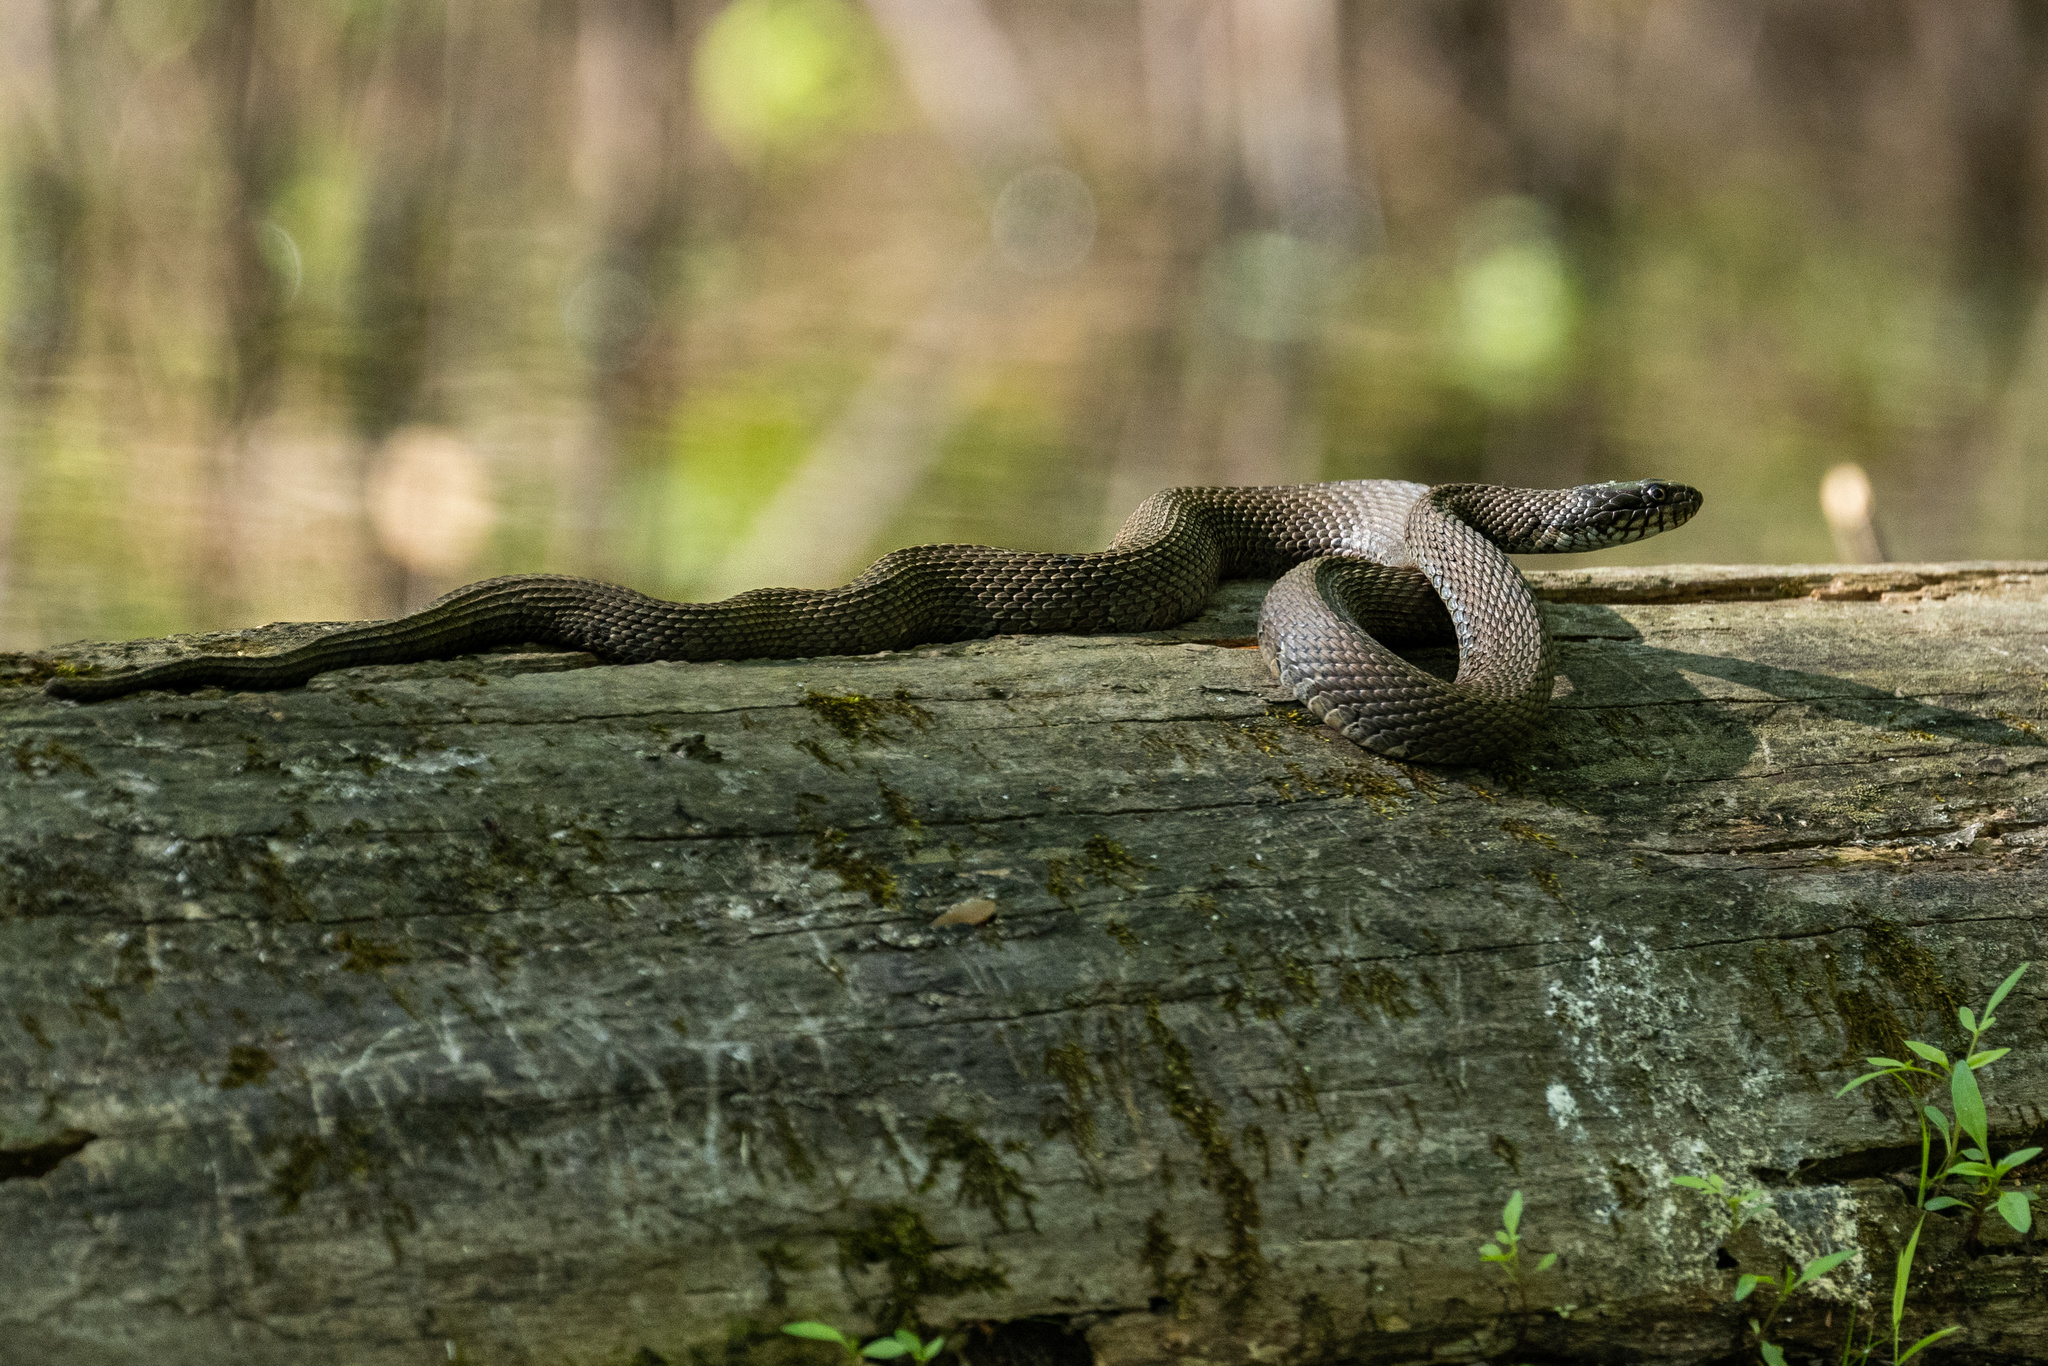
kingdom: Animalia
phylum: Chordata
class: Squamata
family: Colubridae
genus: Nerodia
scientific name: Nerodia sipedon
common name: Northern water snake
